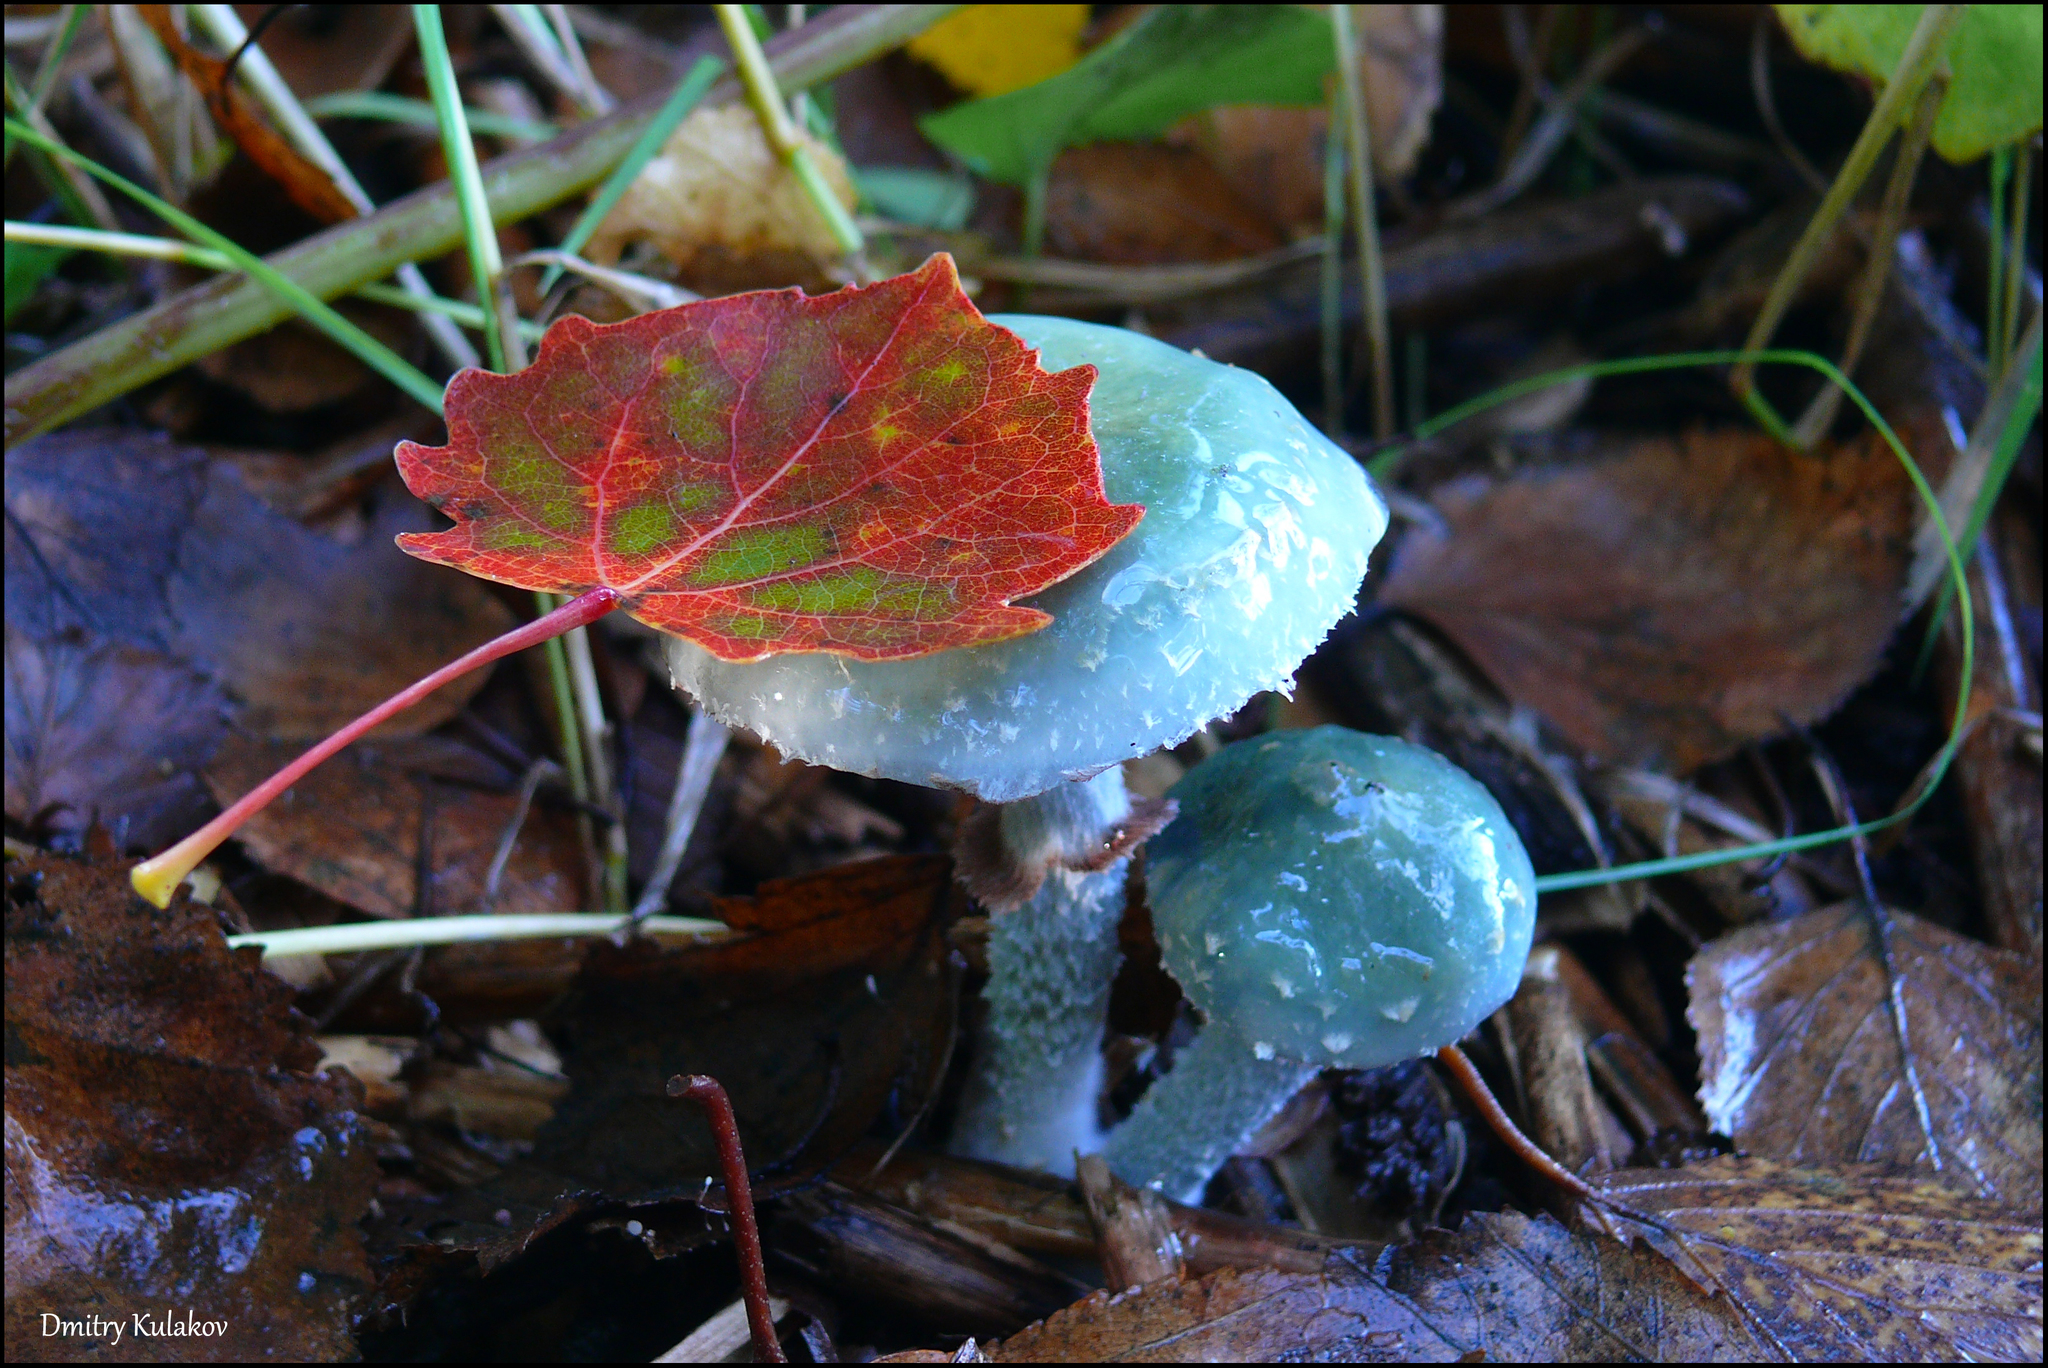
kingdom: Fungi
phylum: Basidiomycota
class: Agaricomycetes
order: Agaricales
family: Strophariaceae
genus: Stropharia
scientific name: Stropharia aeruginosa
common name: Verdigris roundhead
